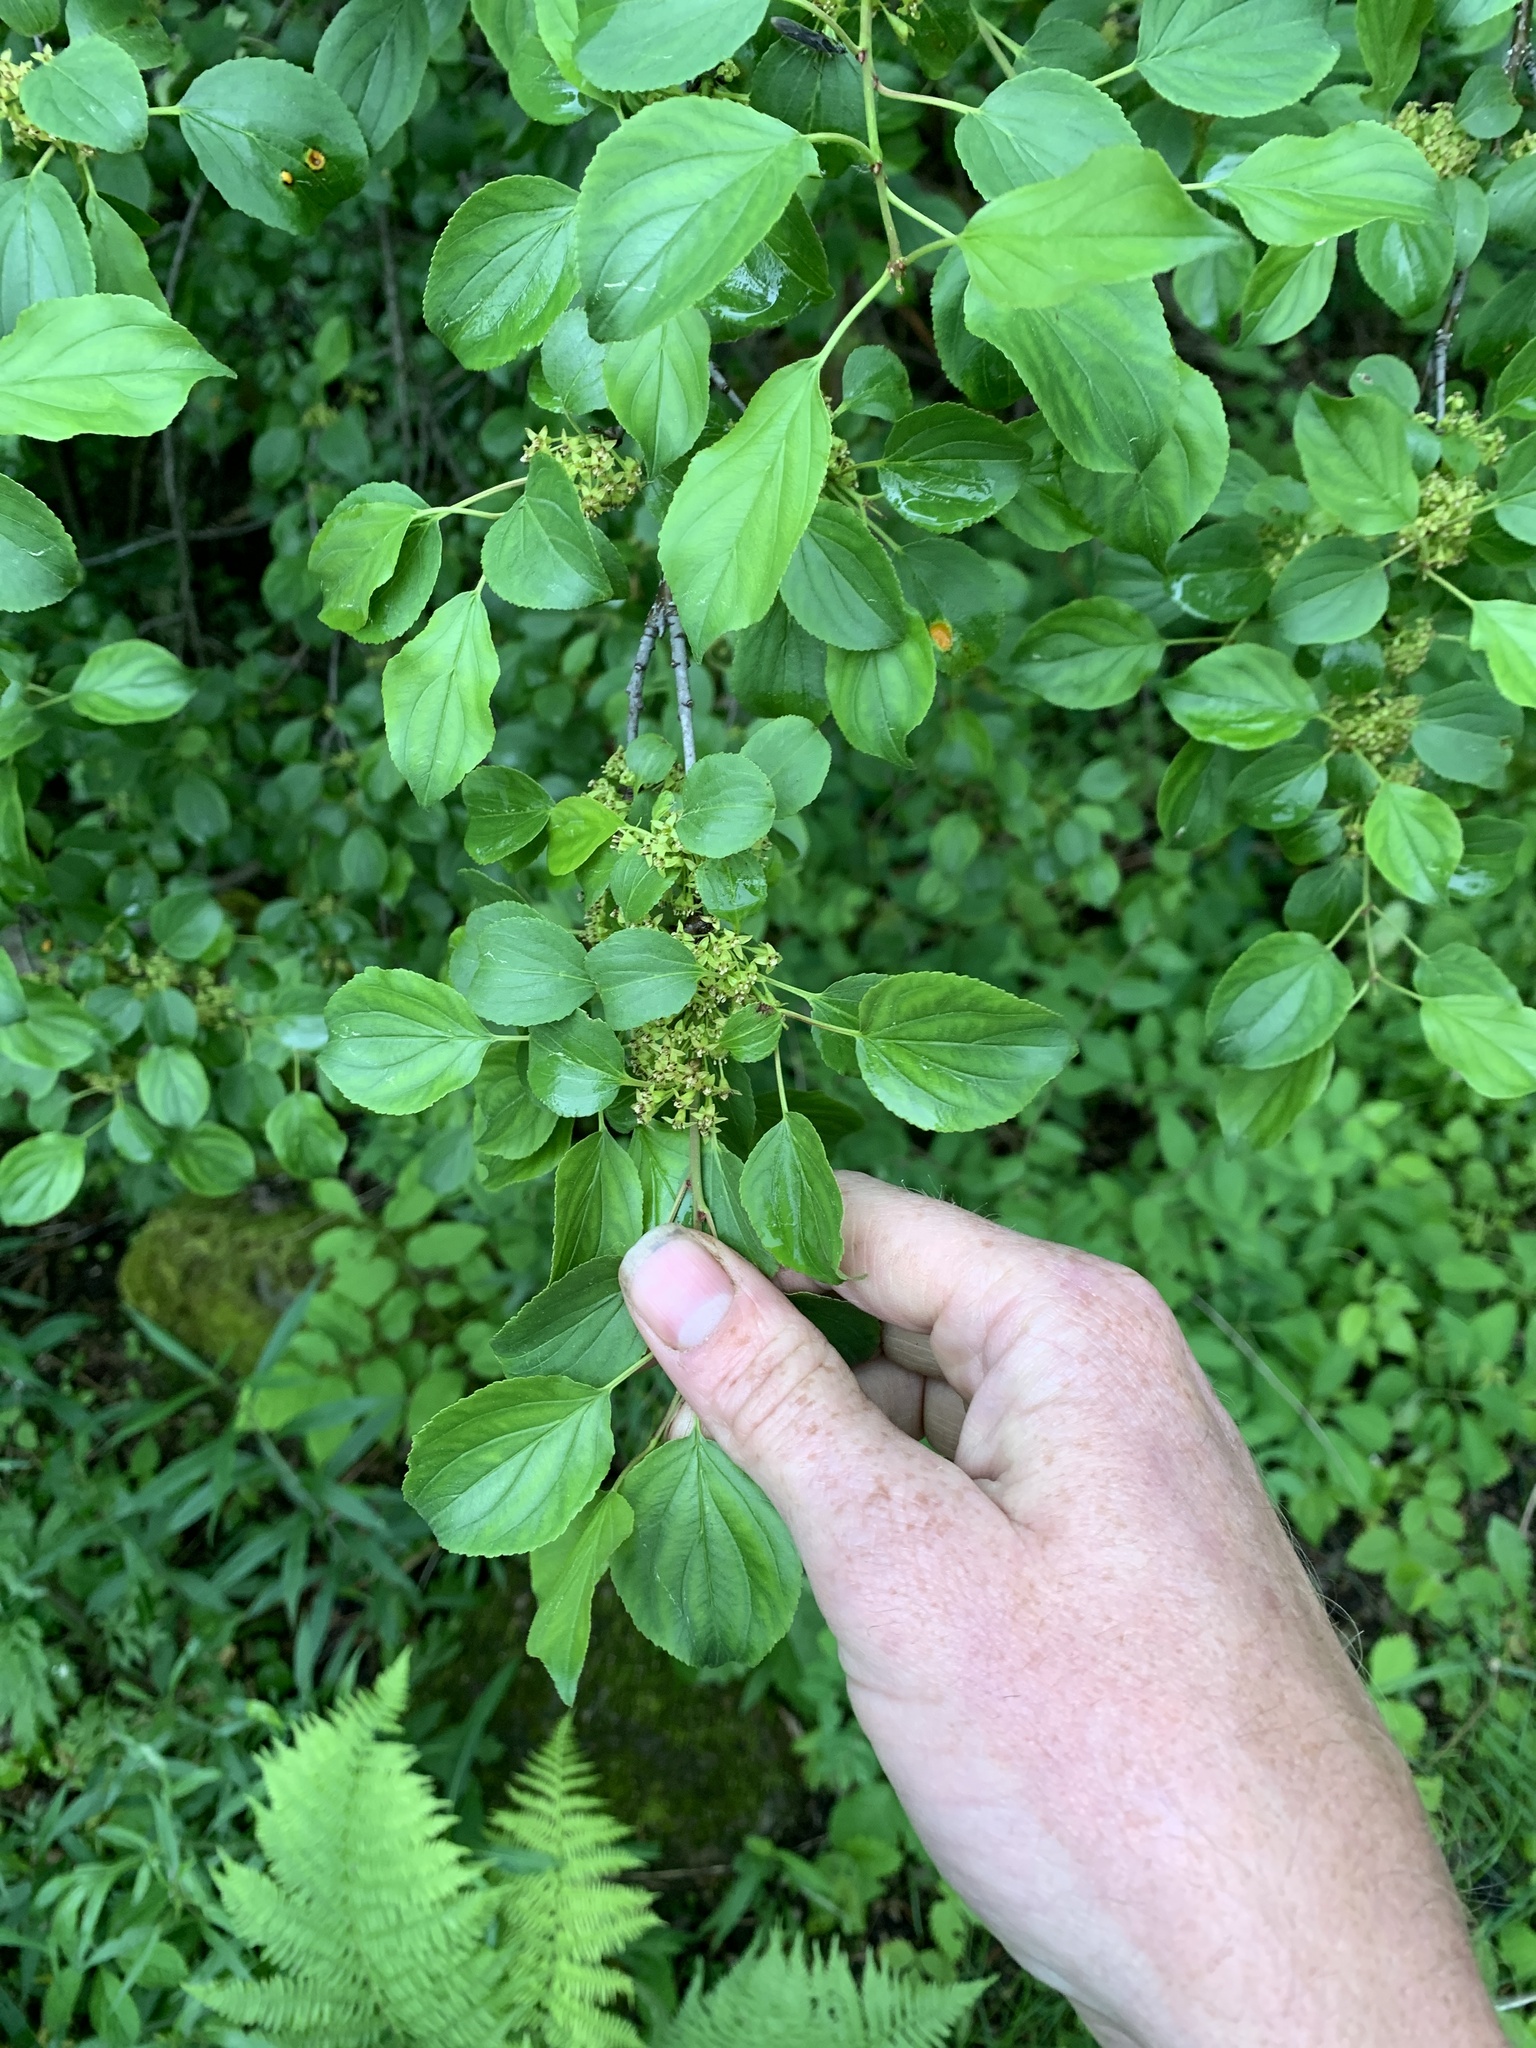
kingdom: Plantae
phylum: Tracheophyta
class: Magnoliopsida
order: Rosales
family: Rhamnaceae
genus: Rhamnus
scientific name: Rhamnus cathartica
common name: Common buckthorn
